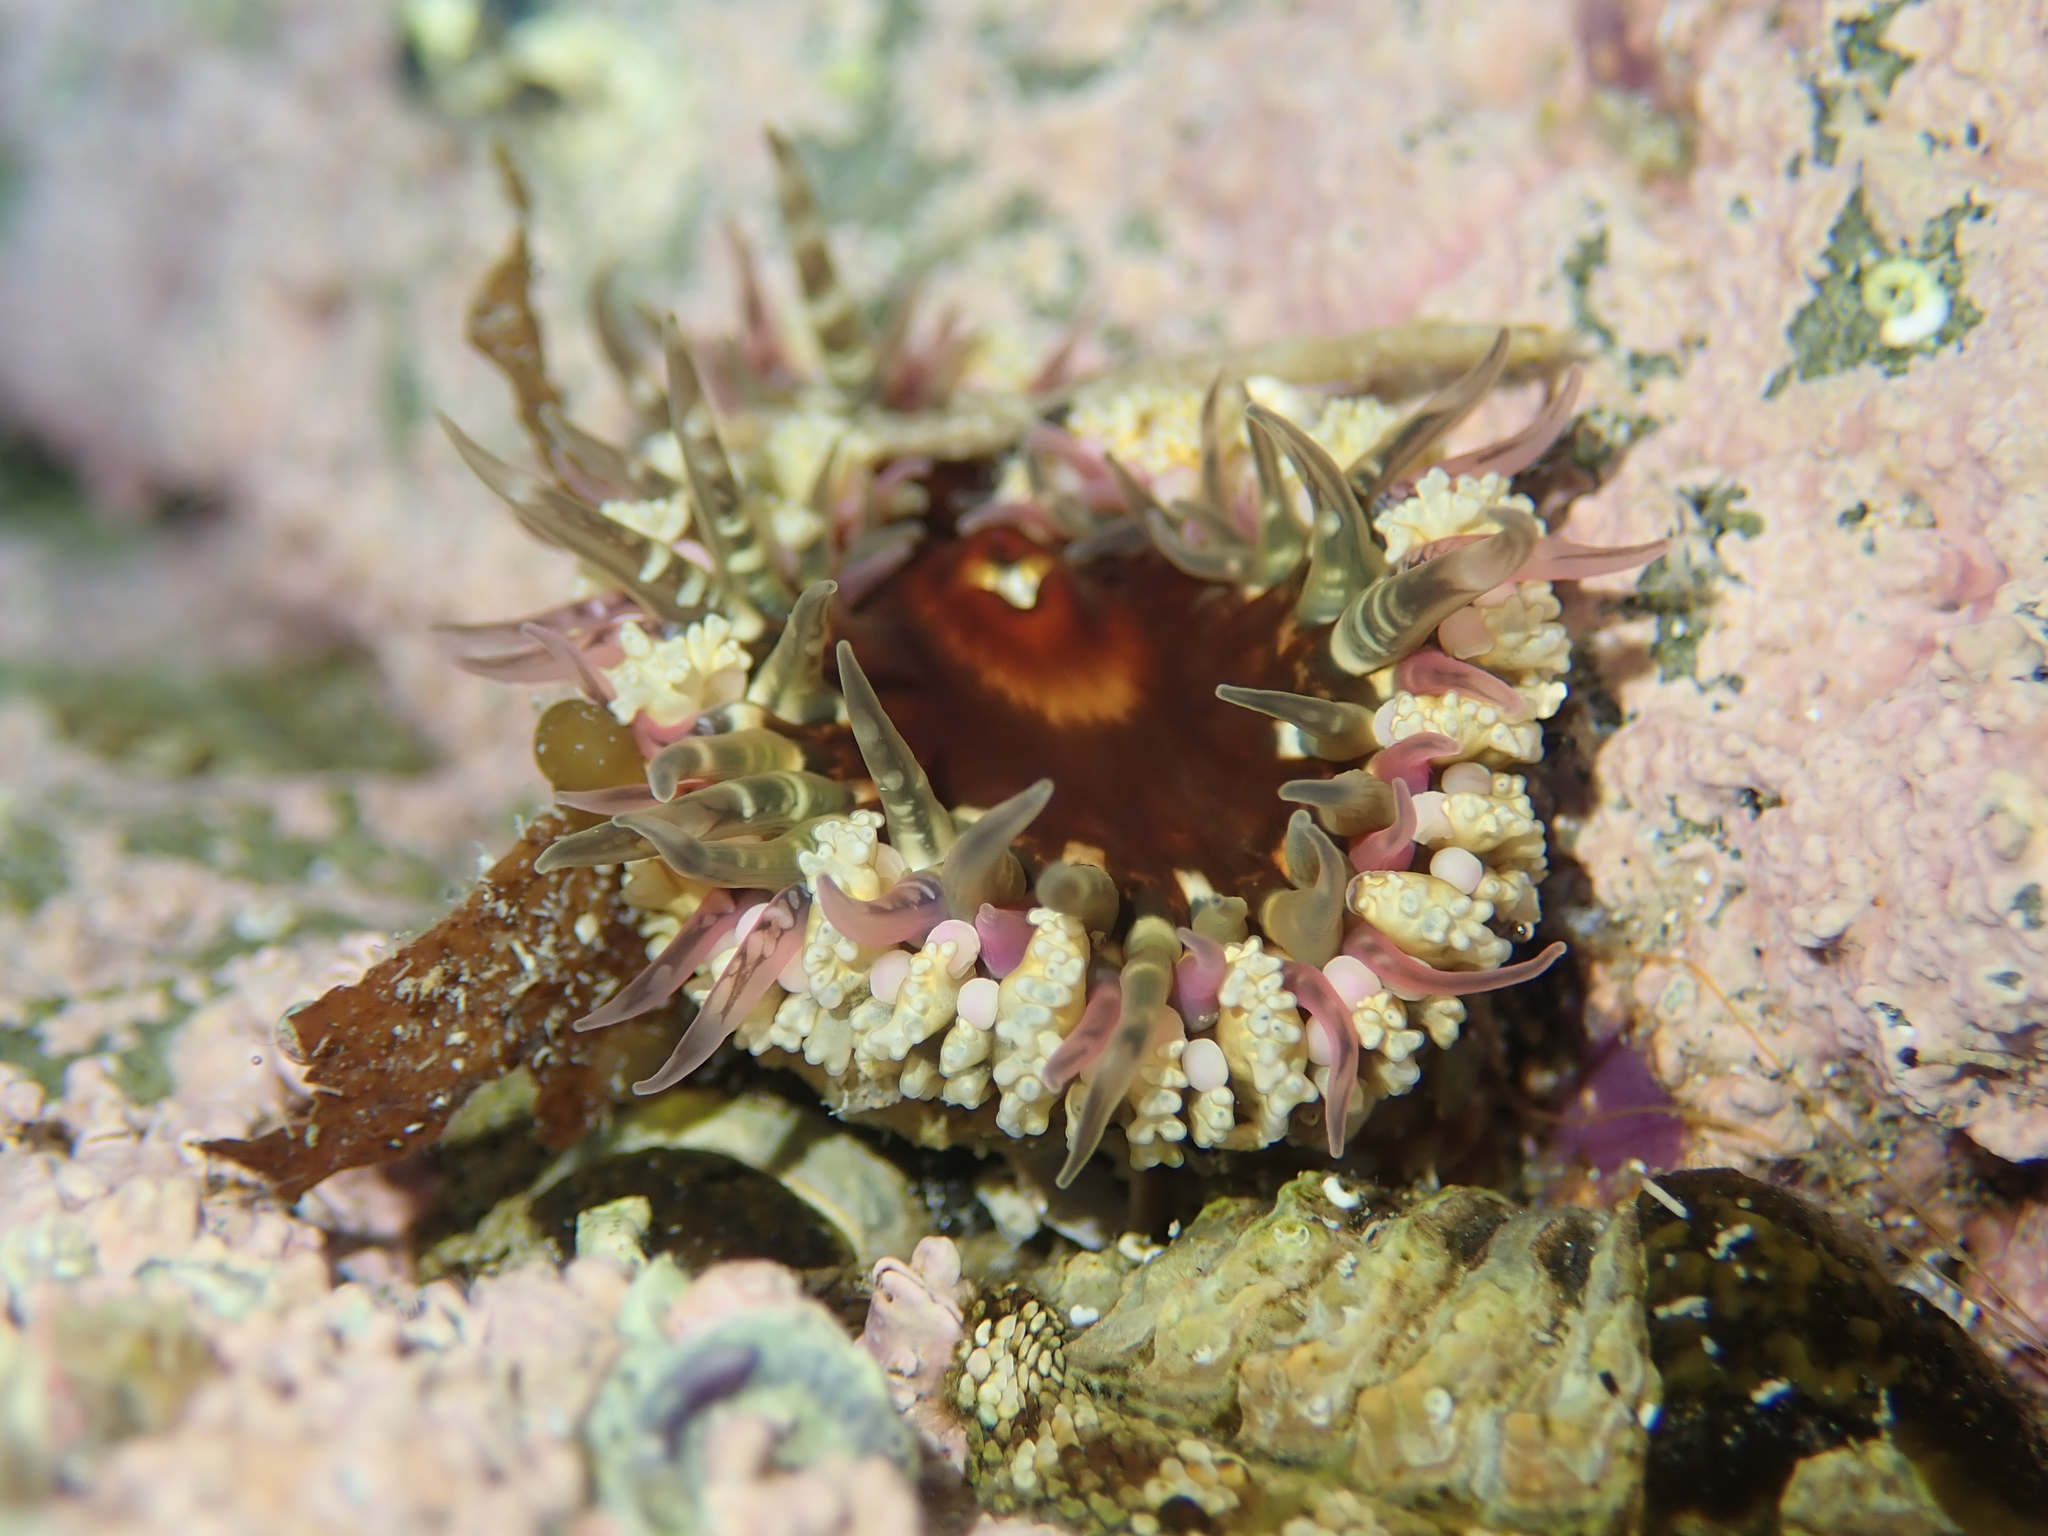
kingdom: Animalia
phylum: Cnidaria
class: Anthozoa
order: Actiniaria
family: Actiniidae
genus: Oulactis
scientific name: Oulactis muscosa
